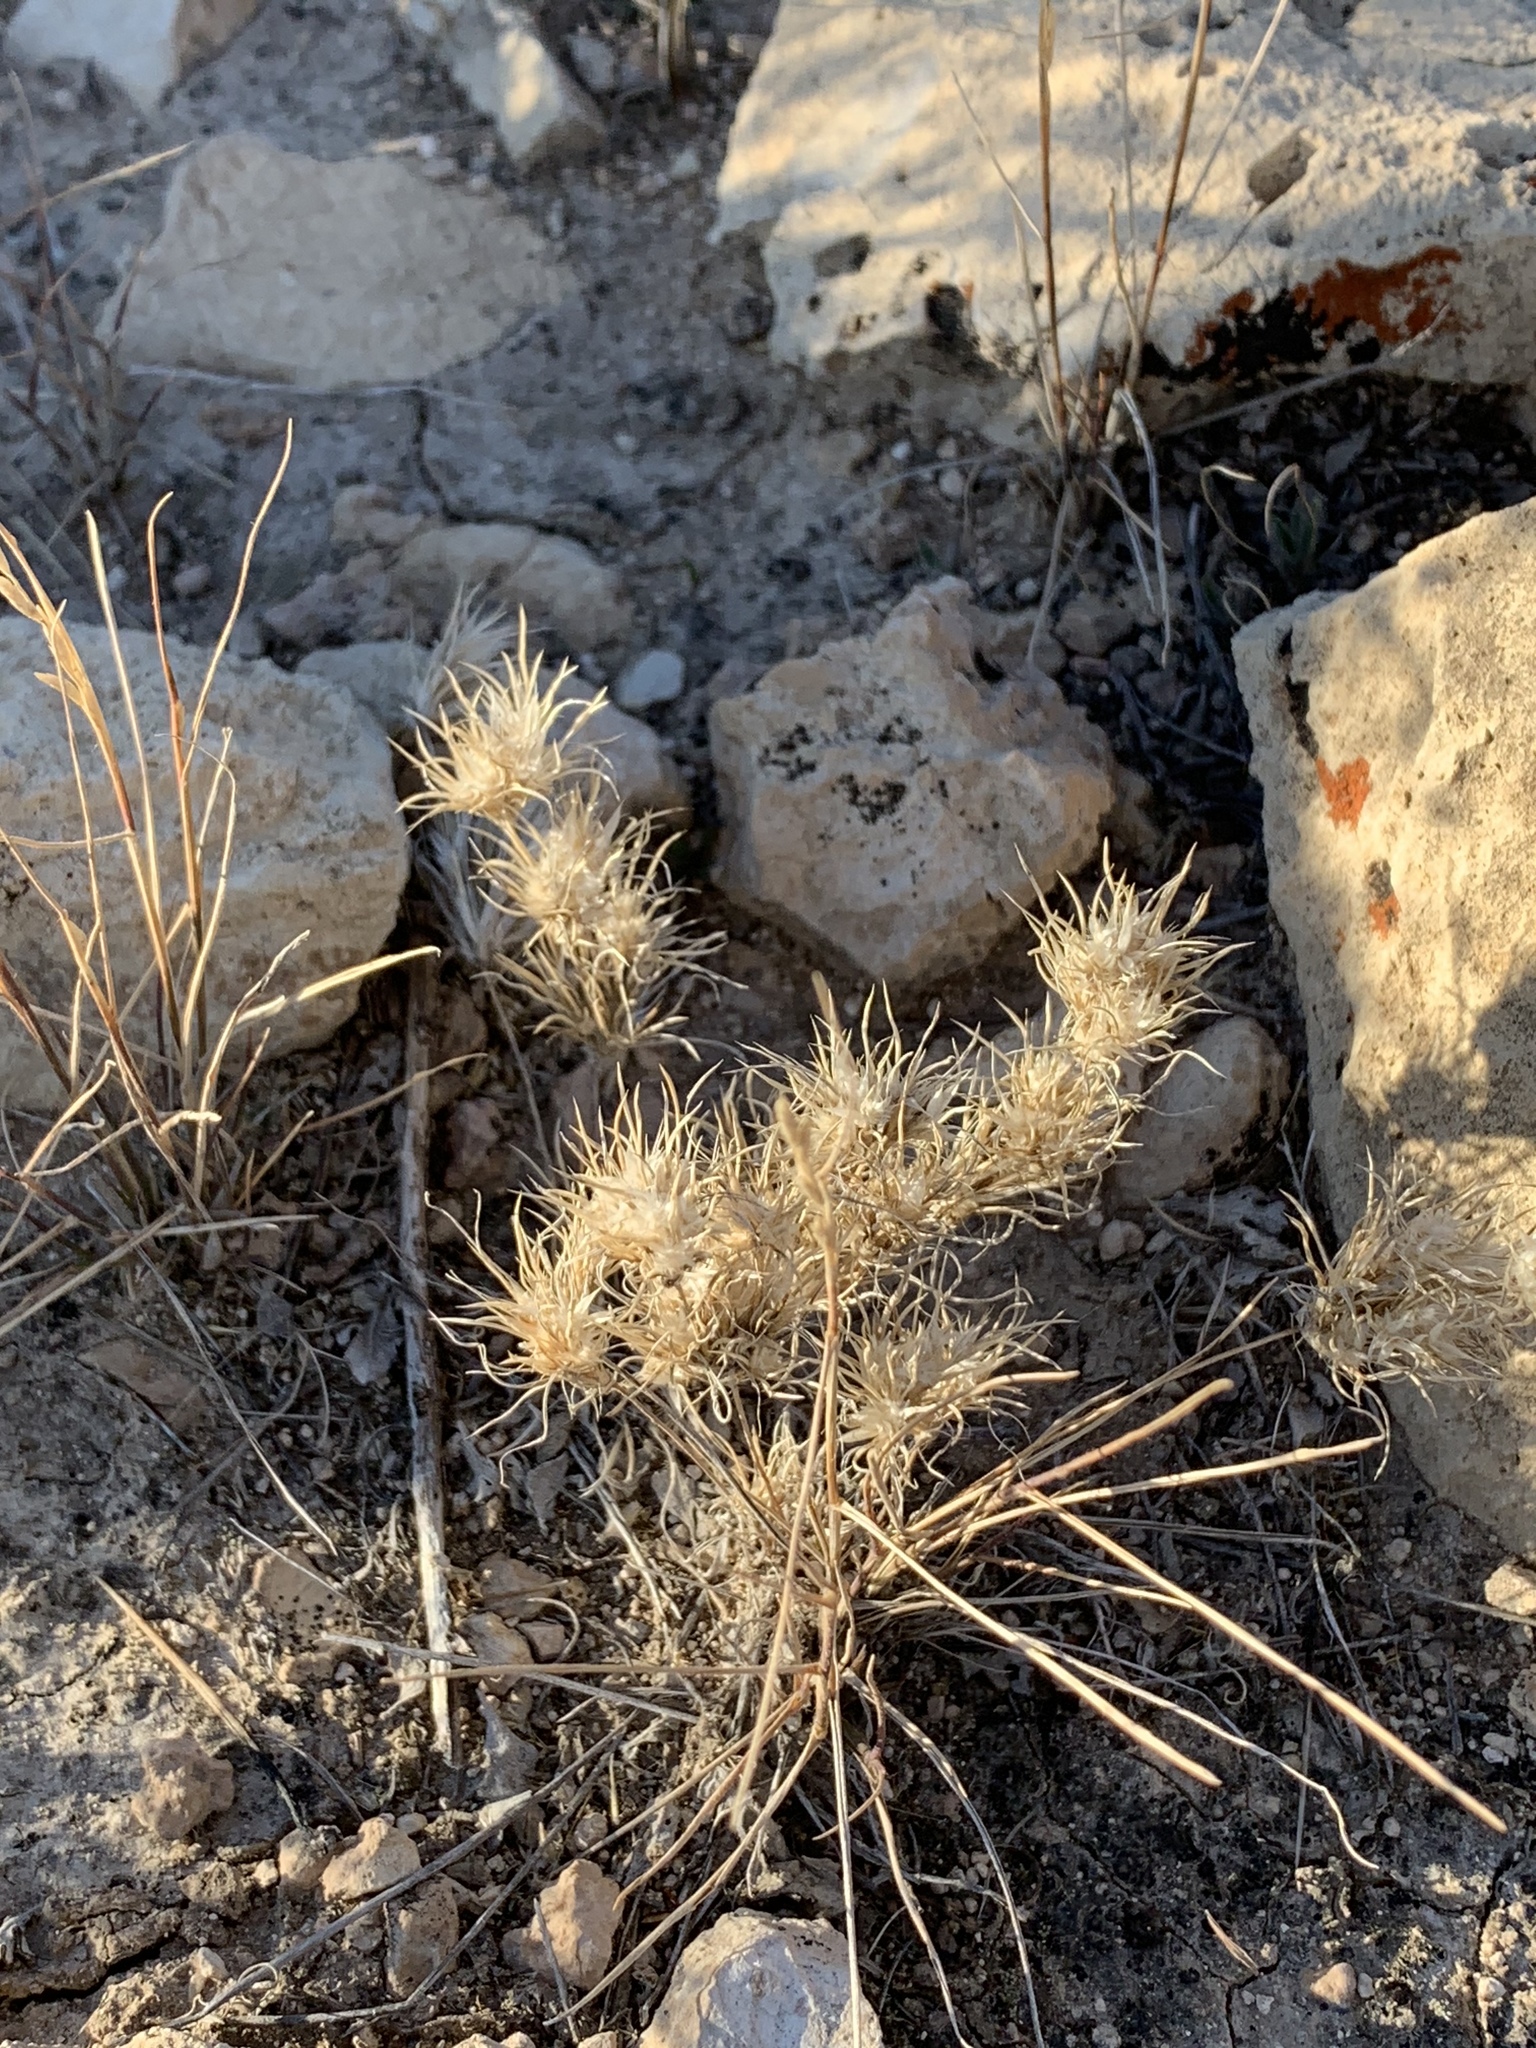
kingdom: Plantae
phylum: Tracheophyta
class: Liliopsida
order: Poales
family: Poaceae
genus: Dasyochloa
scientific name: Dasyochloa pulchella
